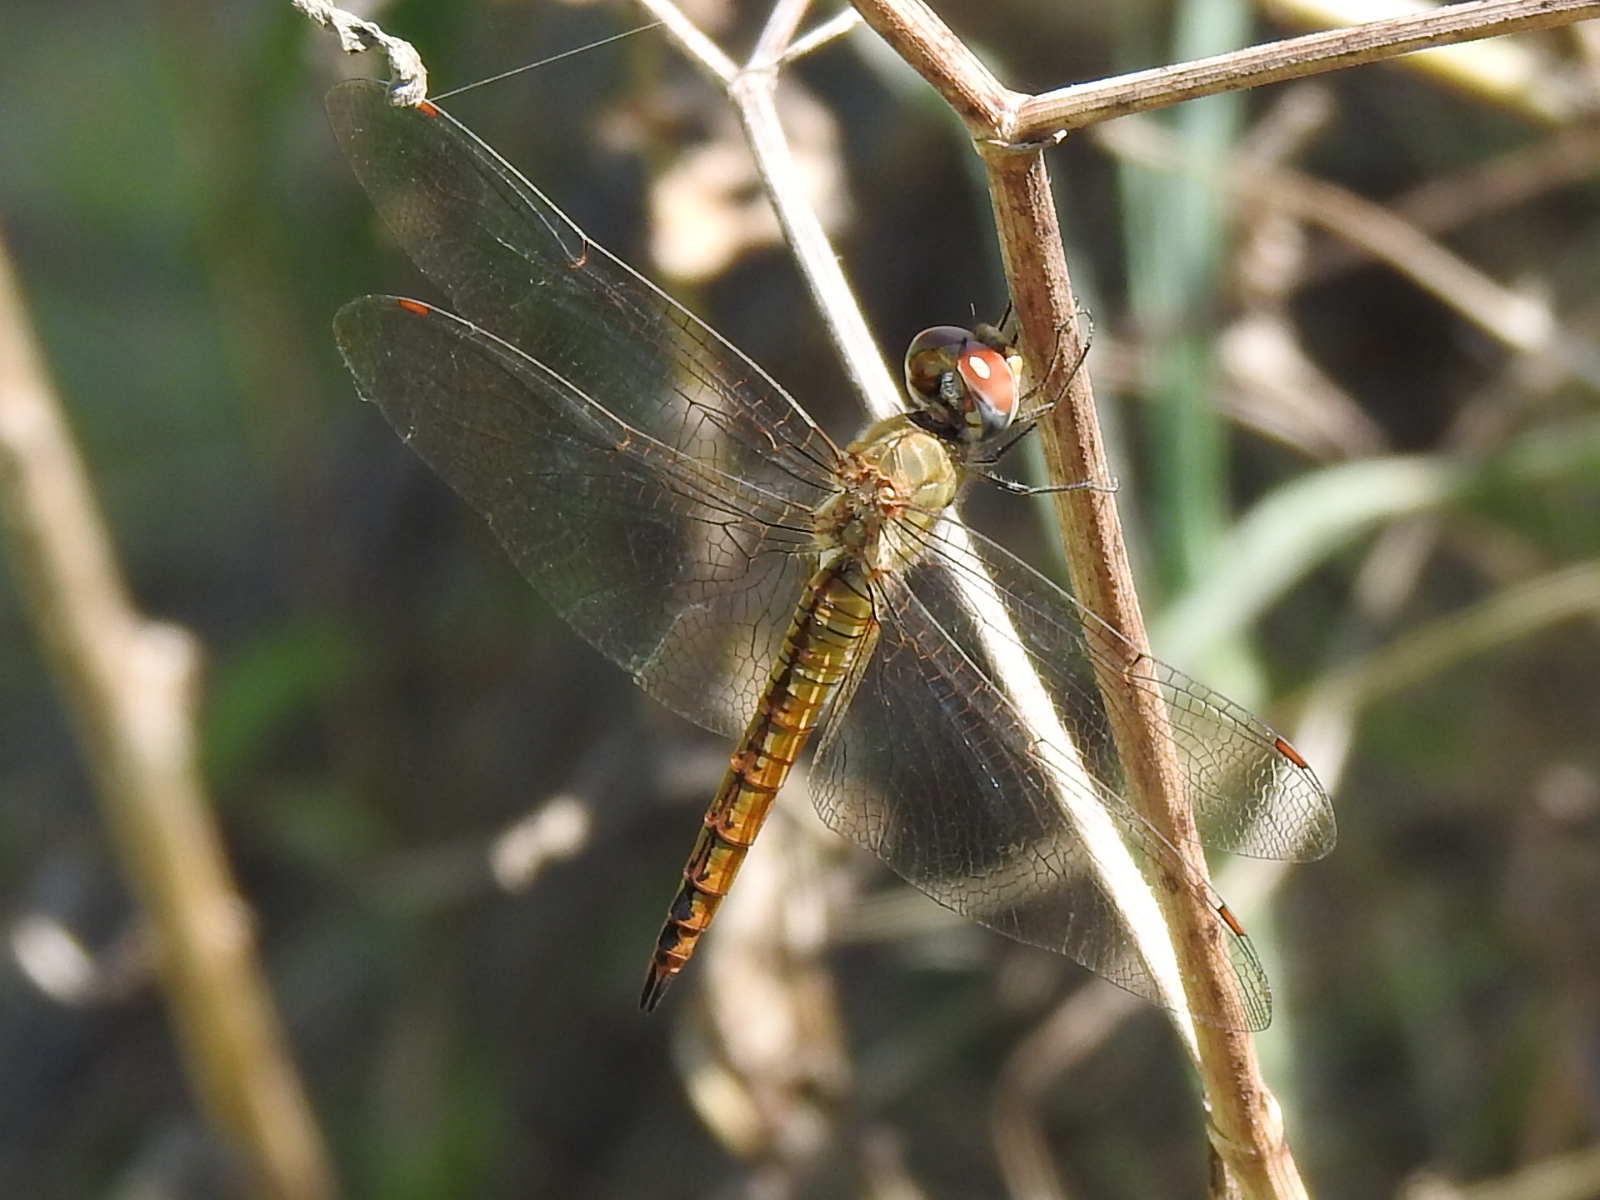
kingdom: Animalia
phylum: Arthropoda
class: Insecta
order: Odonata
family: Libellulidae
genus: Pantala
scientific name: Pantala flavescens
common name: Wandering glider
